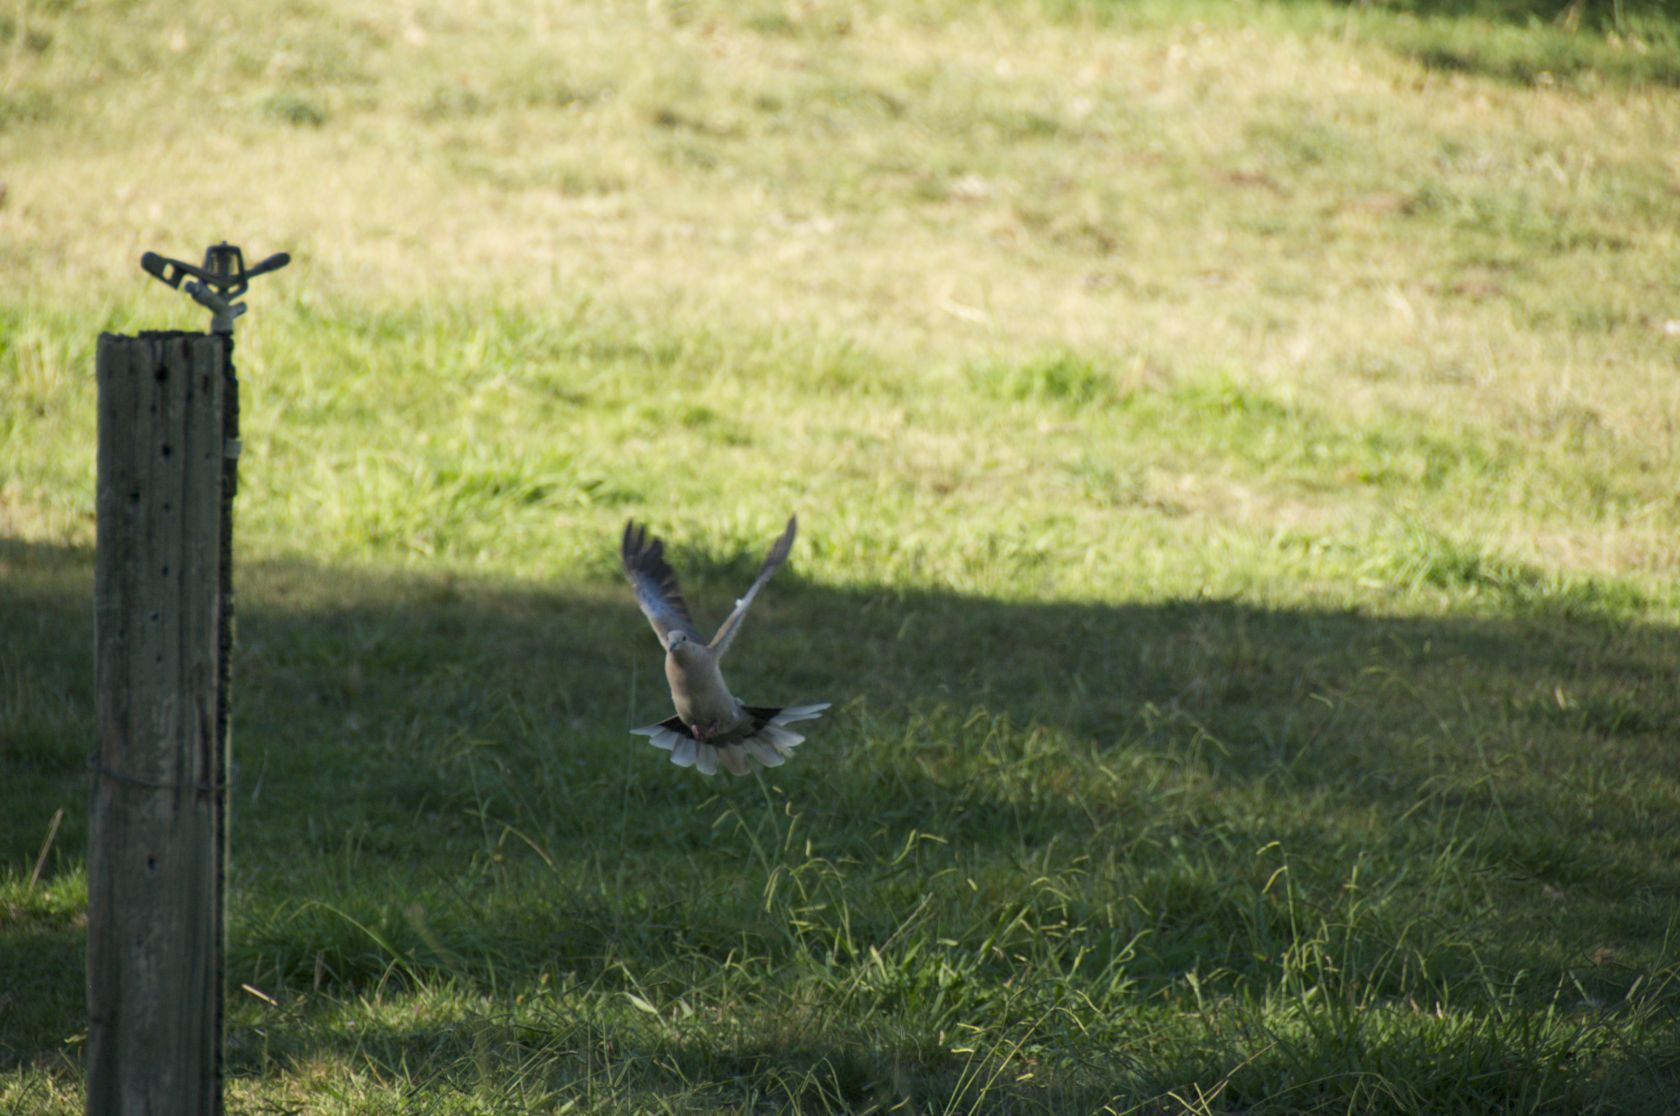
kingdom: Animalia
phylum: Chordata
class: Aves
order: Columbiformes
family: Columbidae
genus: Streptopelia
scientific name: Streptopelia decaocto
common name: Eurasian collared dove
